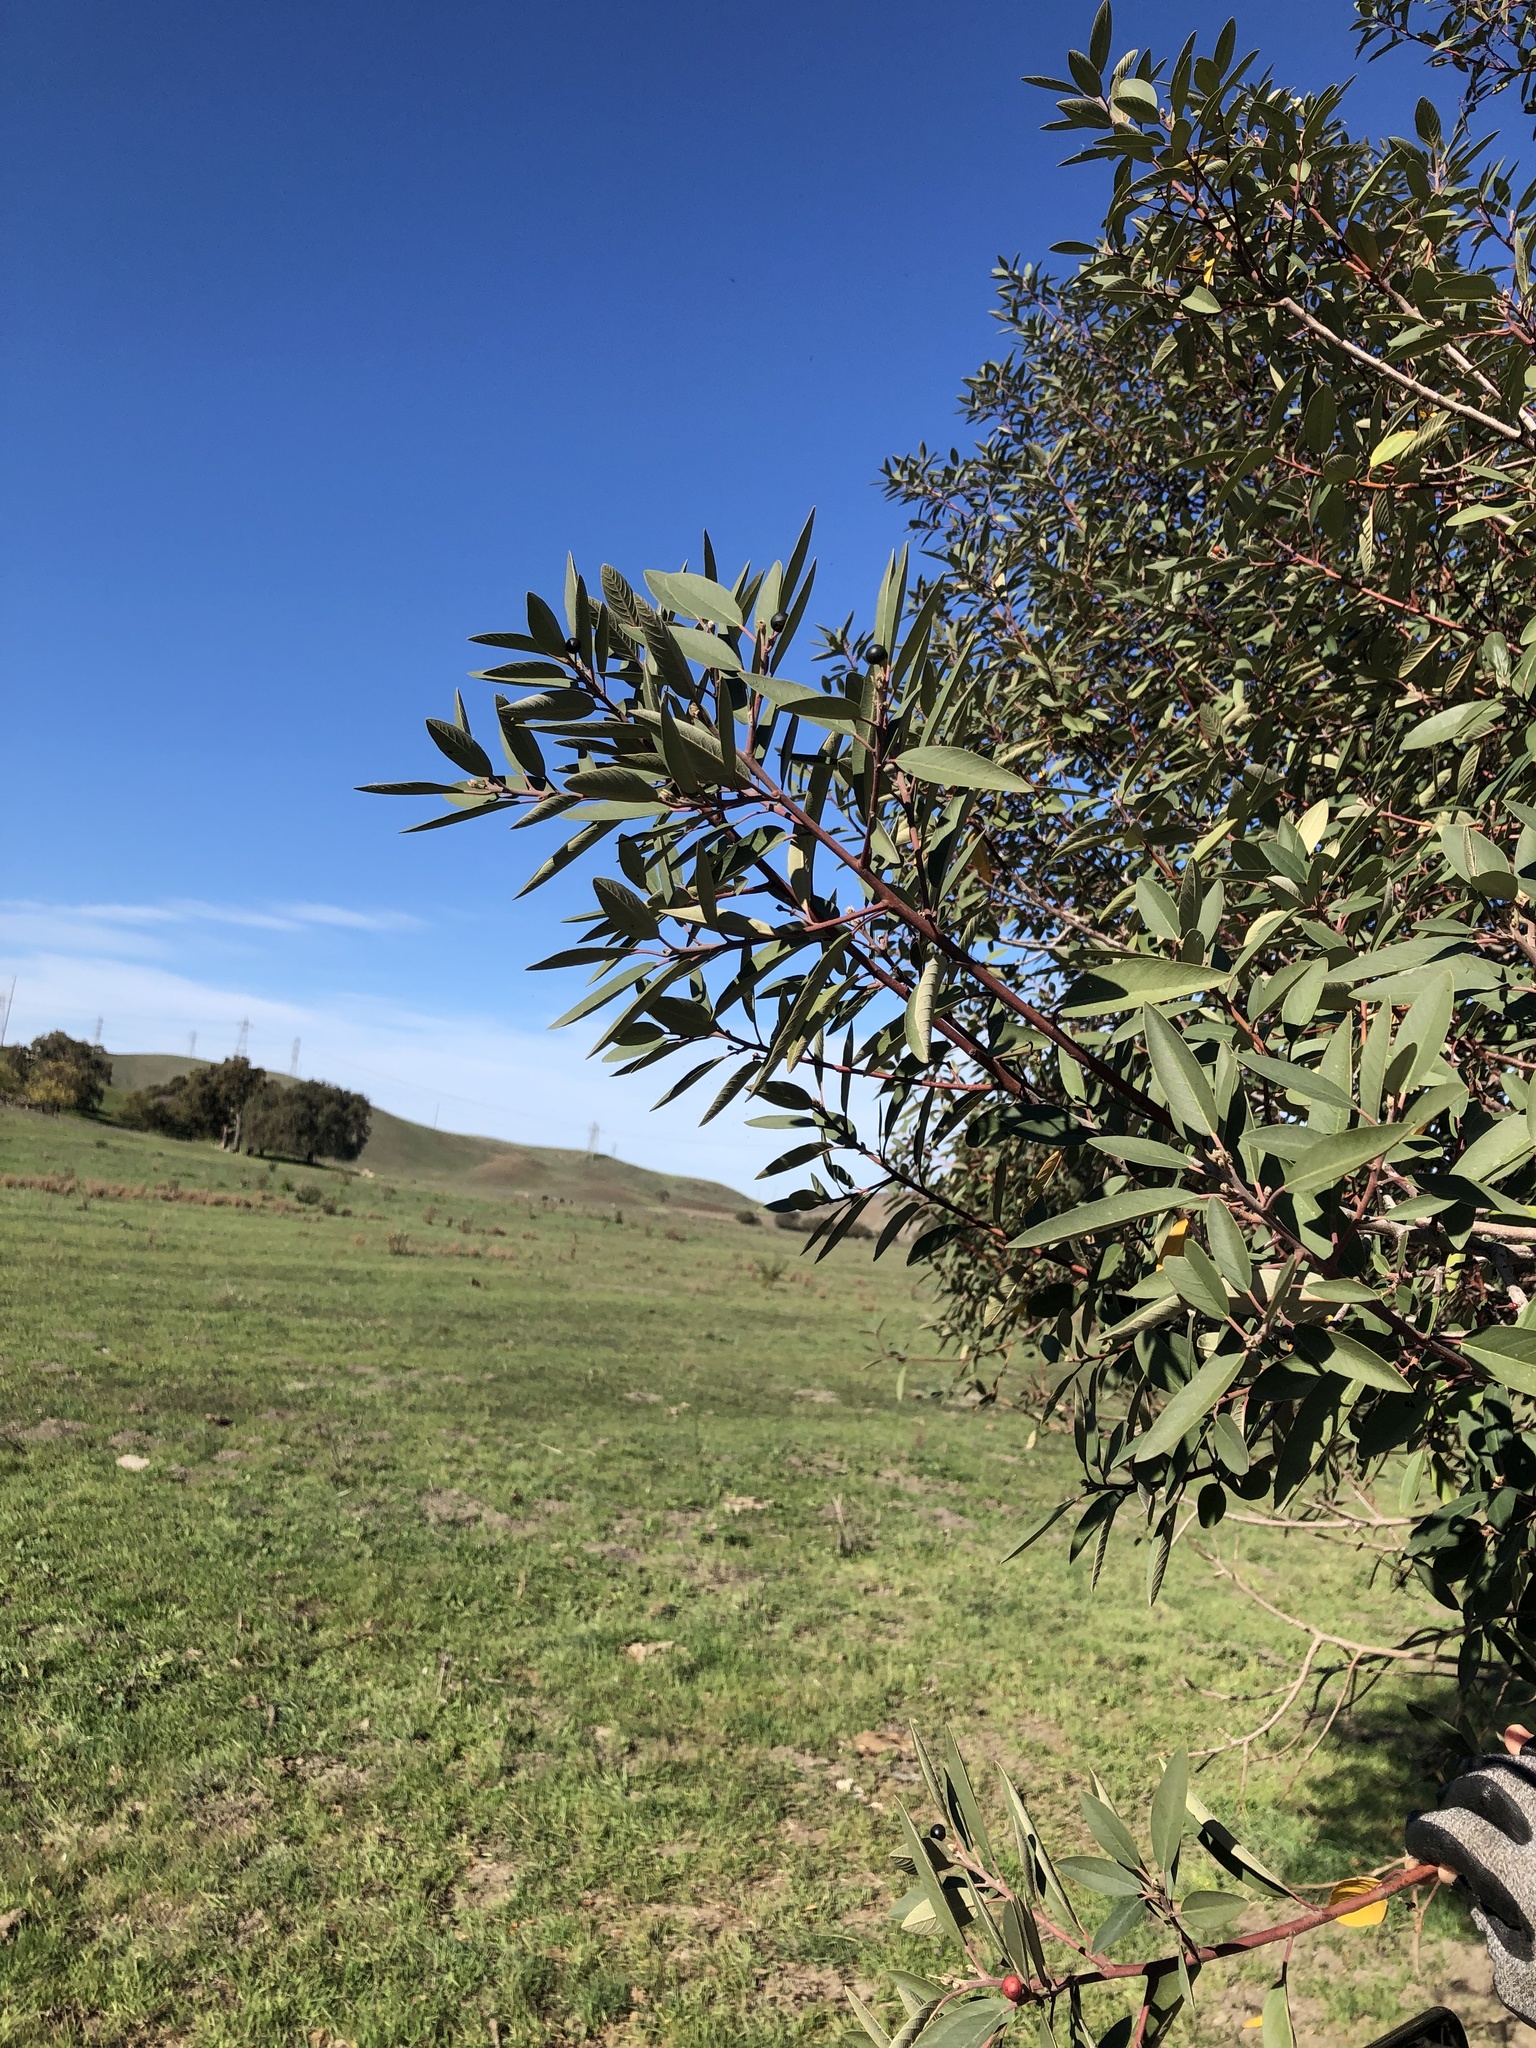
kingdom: Plantae
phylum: Tracheophyta
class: Magnoliopsida
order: Rosales
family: Rhamnaceae
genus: Frangula
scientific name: Frangula californica
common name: California buckthorn
